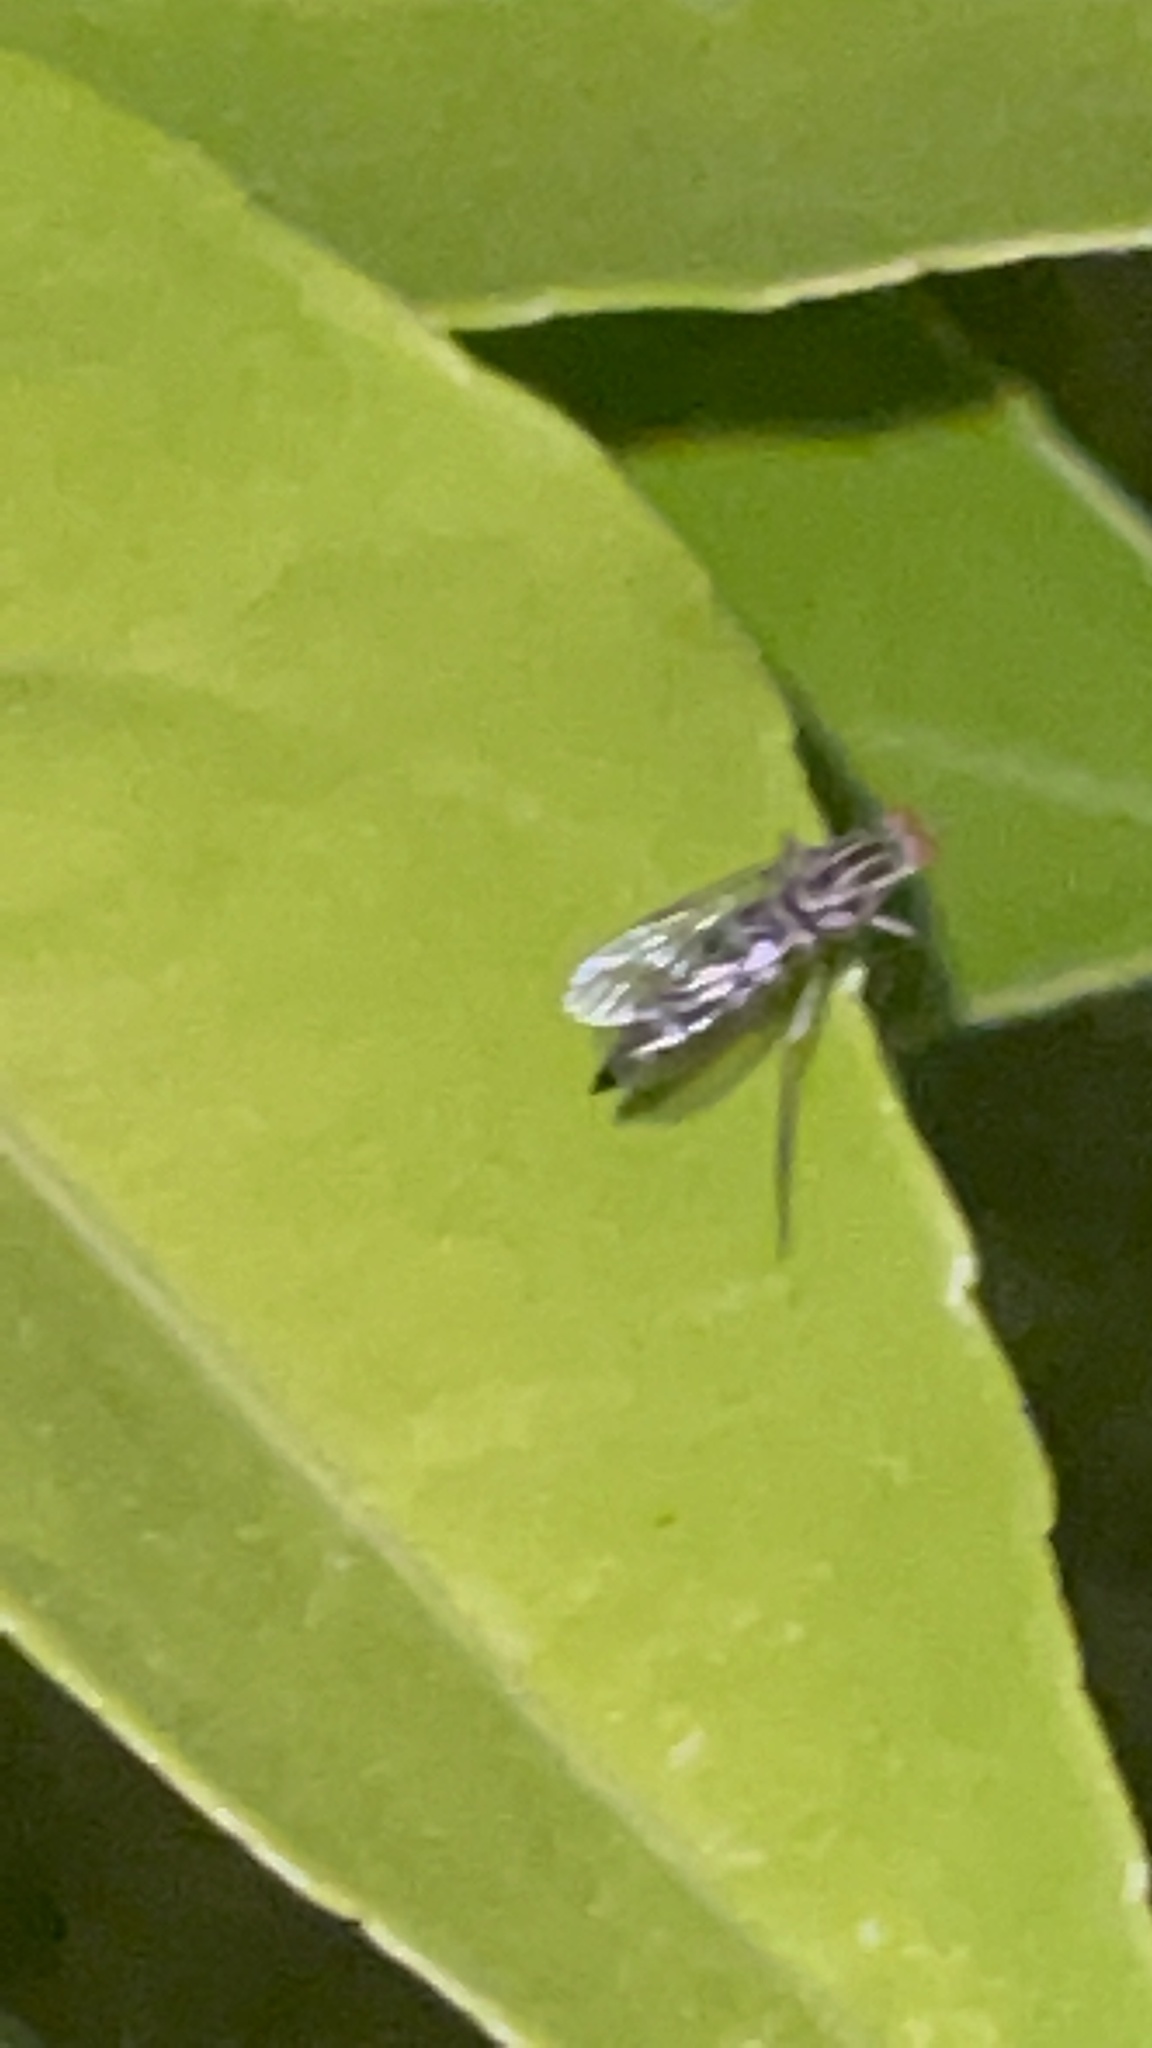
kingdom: Animalia
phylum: Arthropoda
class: Insecta
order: Diptera
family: Therevidae
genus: Penniverpa
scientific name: Penniverpa festina
